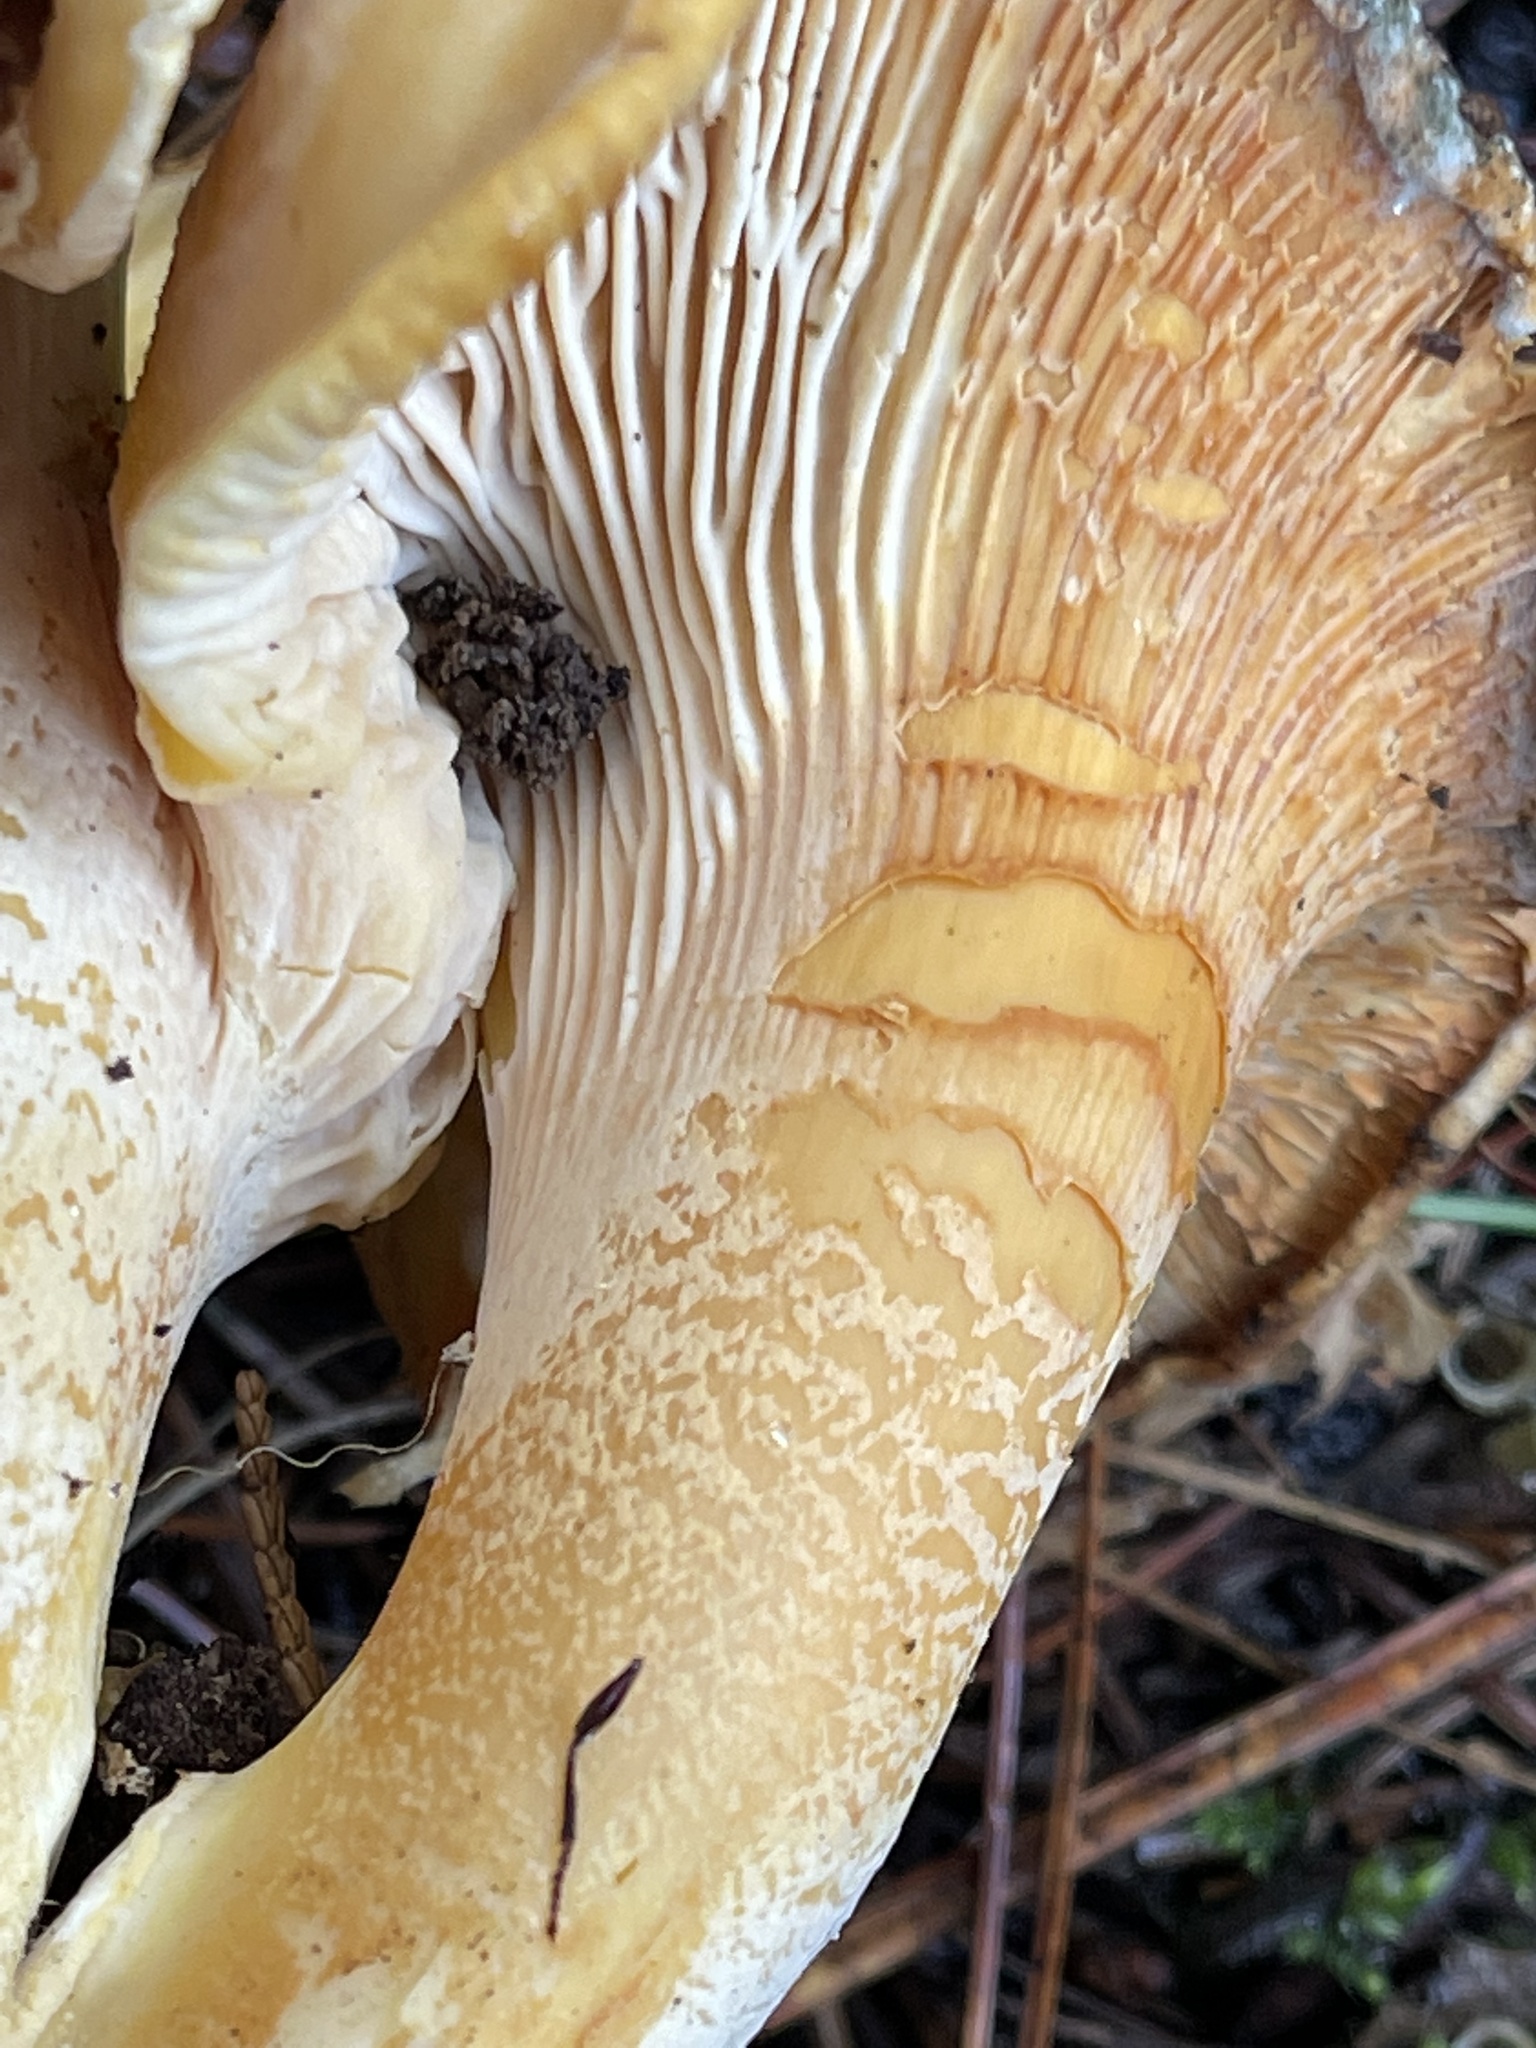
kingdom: Fungi
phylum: Basidiomycota
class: Agaricomycetes
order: Cantharellales
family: Hydnaceae
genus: Cantharellus
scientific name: Cantharellus formosus
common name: Pacific golden chanterelle
